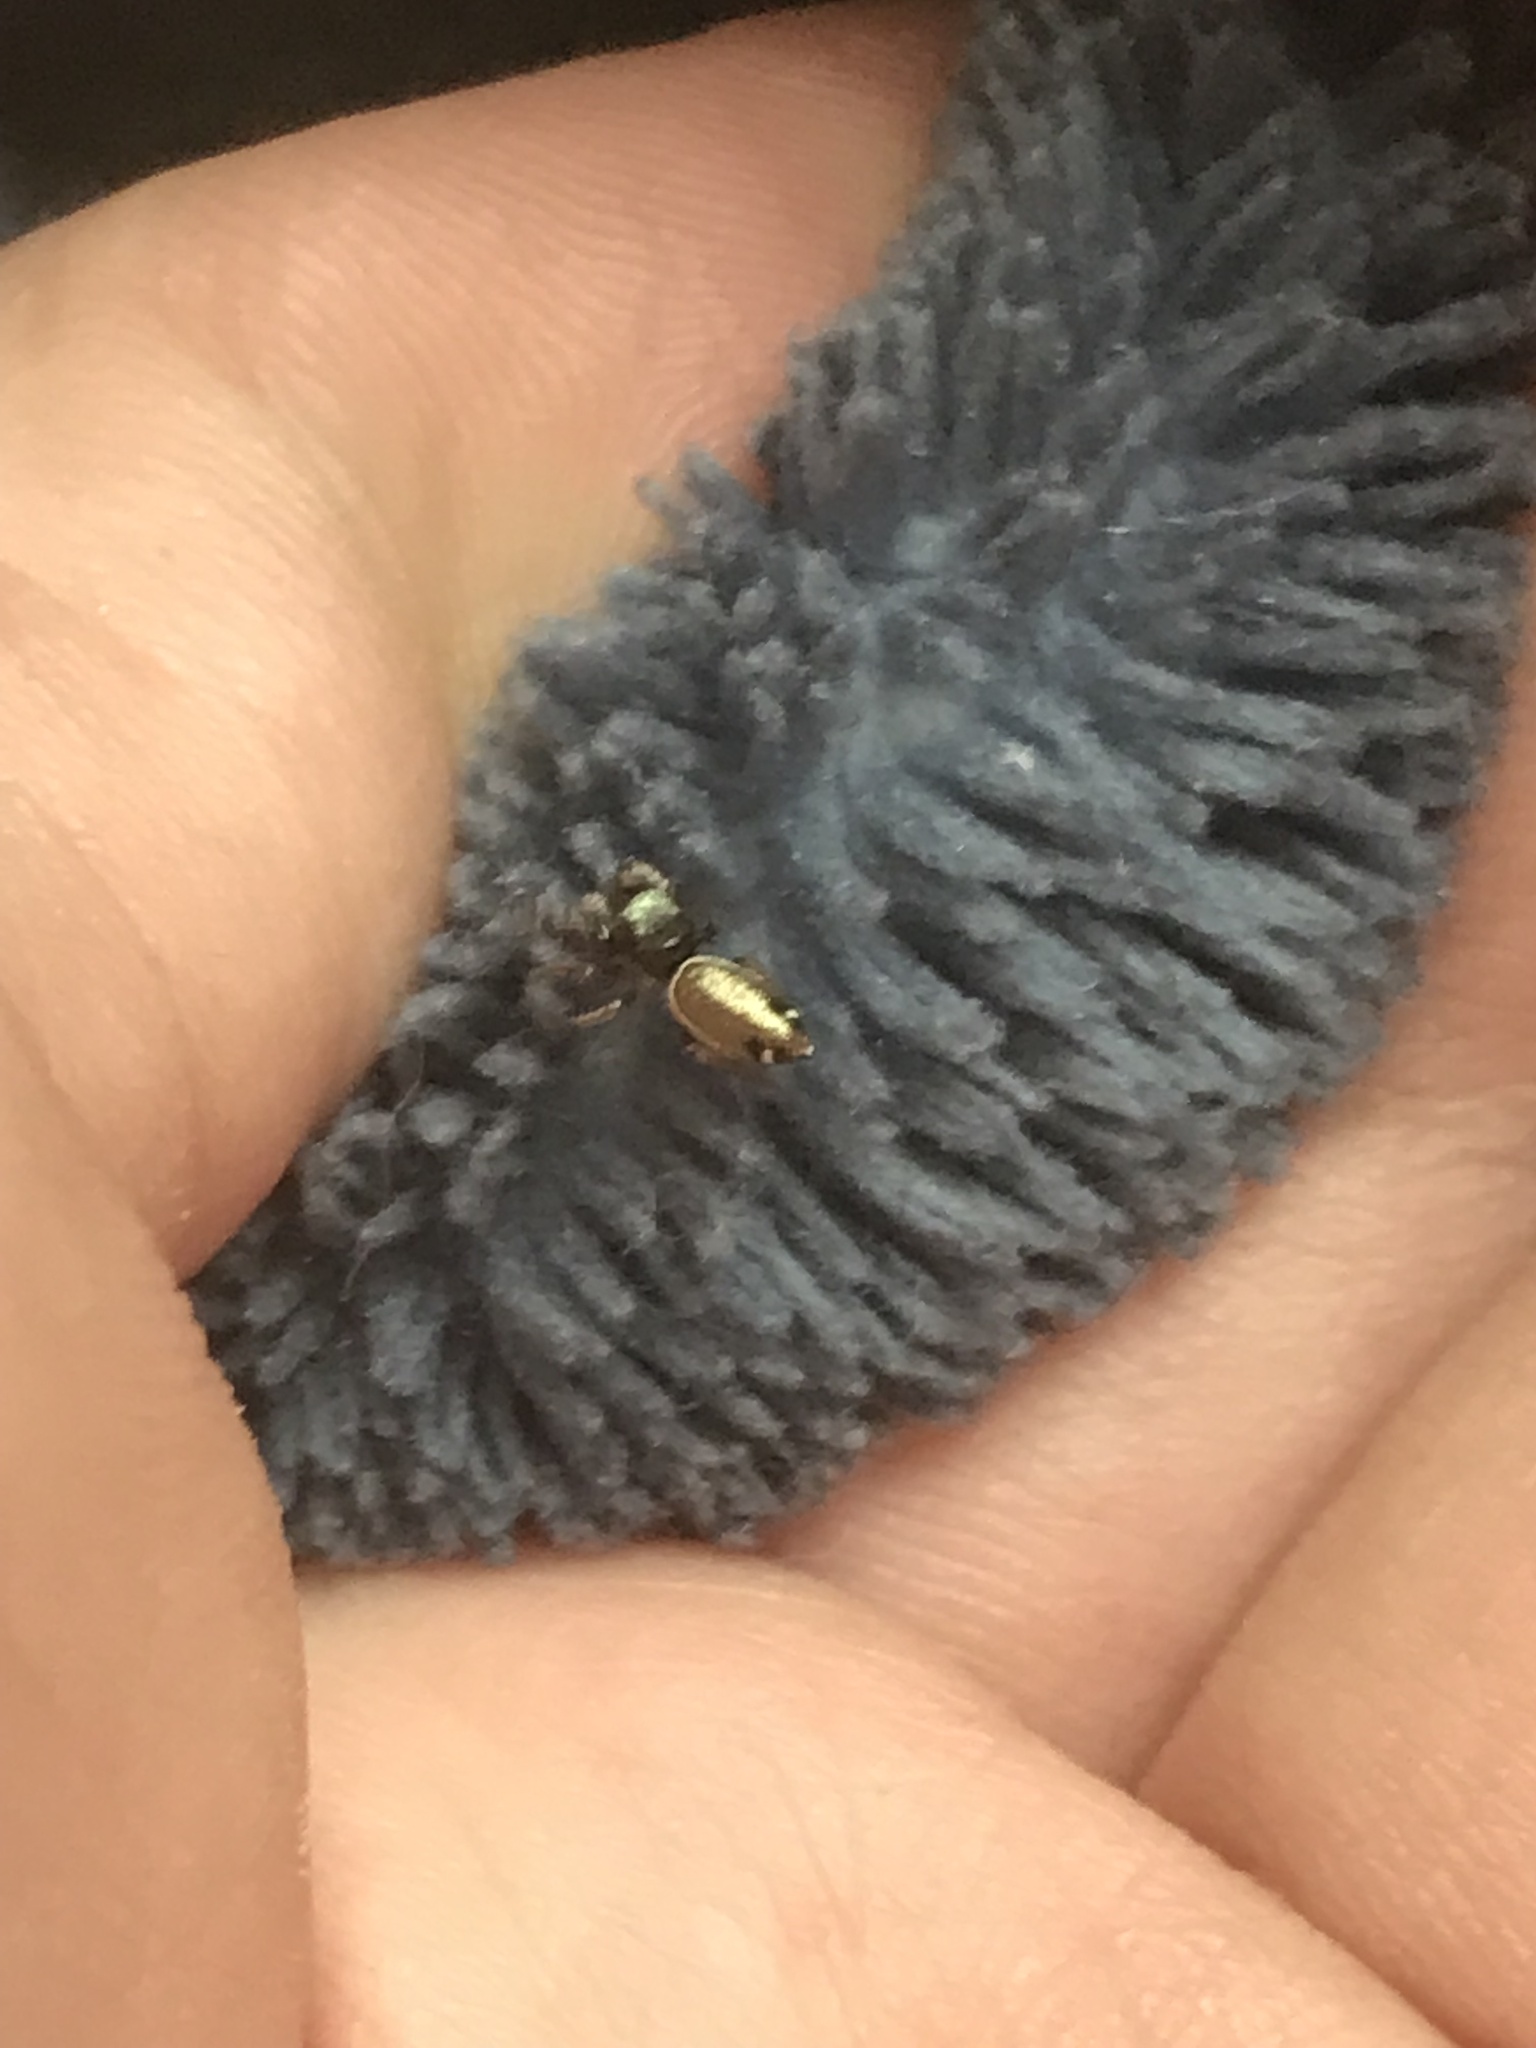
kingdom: Animalia
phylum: Arthropoda
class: Arachnida
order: Araneae
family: Salticidae
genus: Sassacus
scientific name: Sassacus vitis
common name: Jumping spiders
